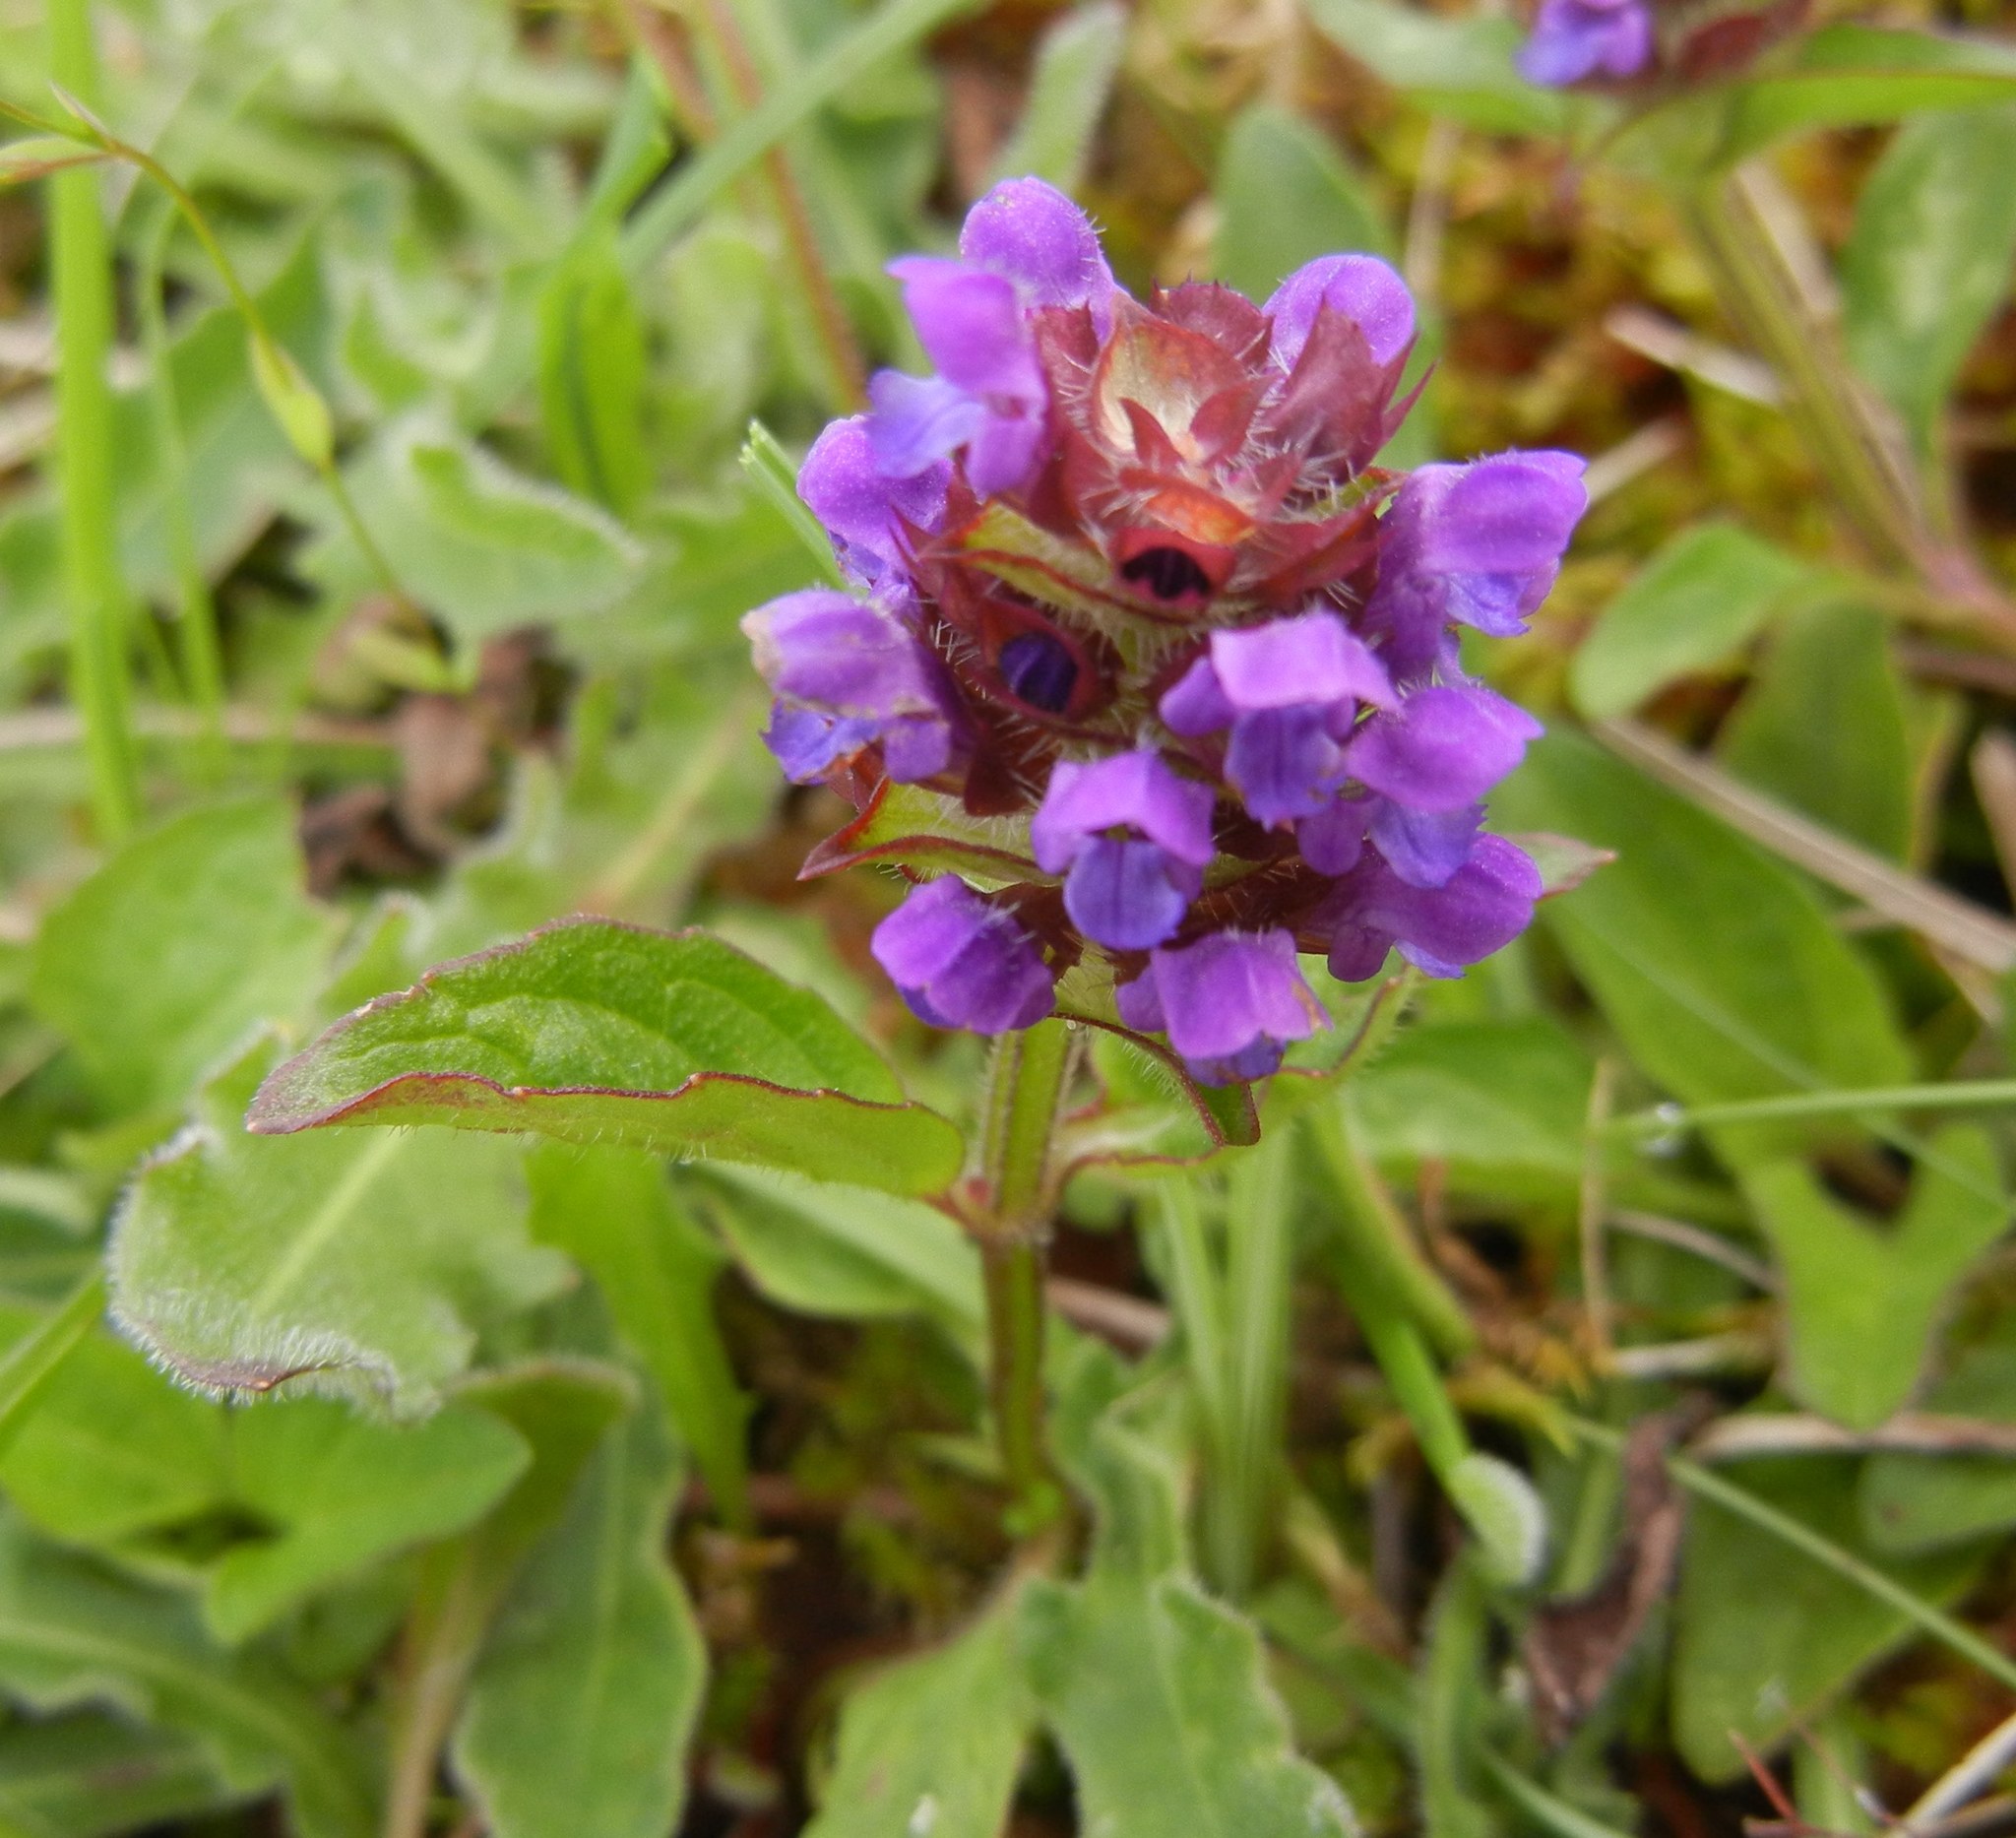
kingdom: Plantae
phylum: Tracheophyta
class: Magnoliopsida
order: Lamiales
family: Lamiaceae
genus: Prunella
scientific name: Prunella vulgaris
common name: Heal-all
